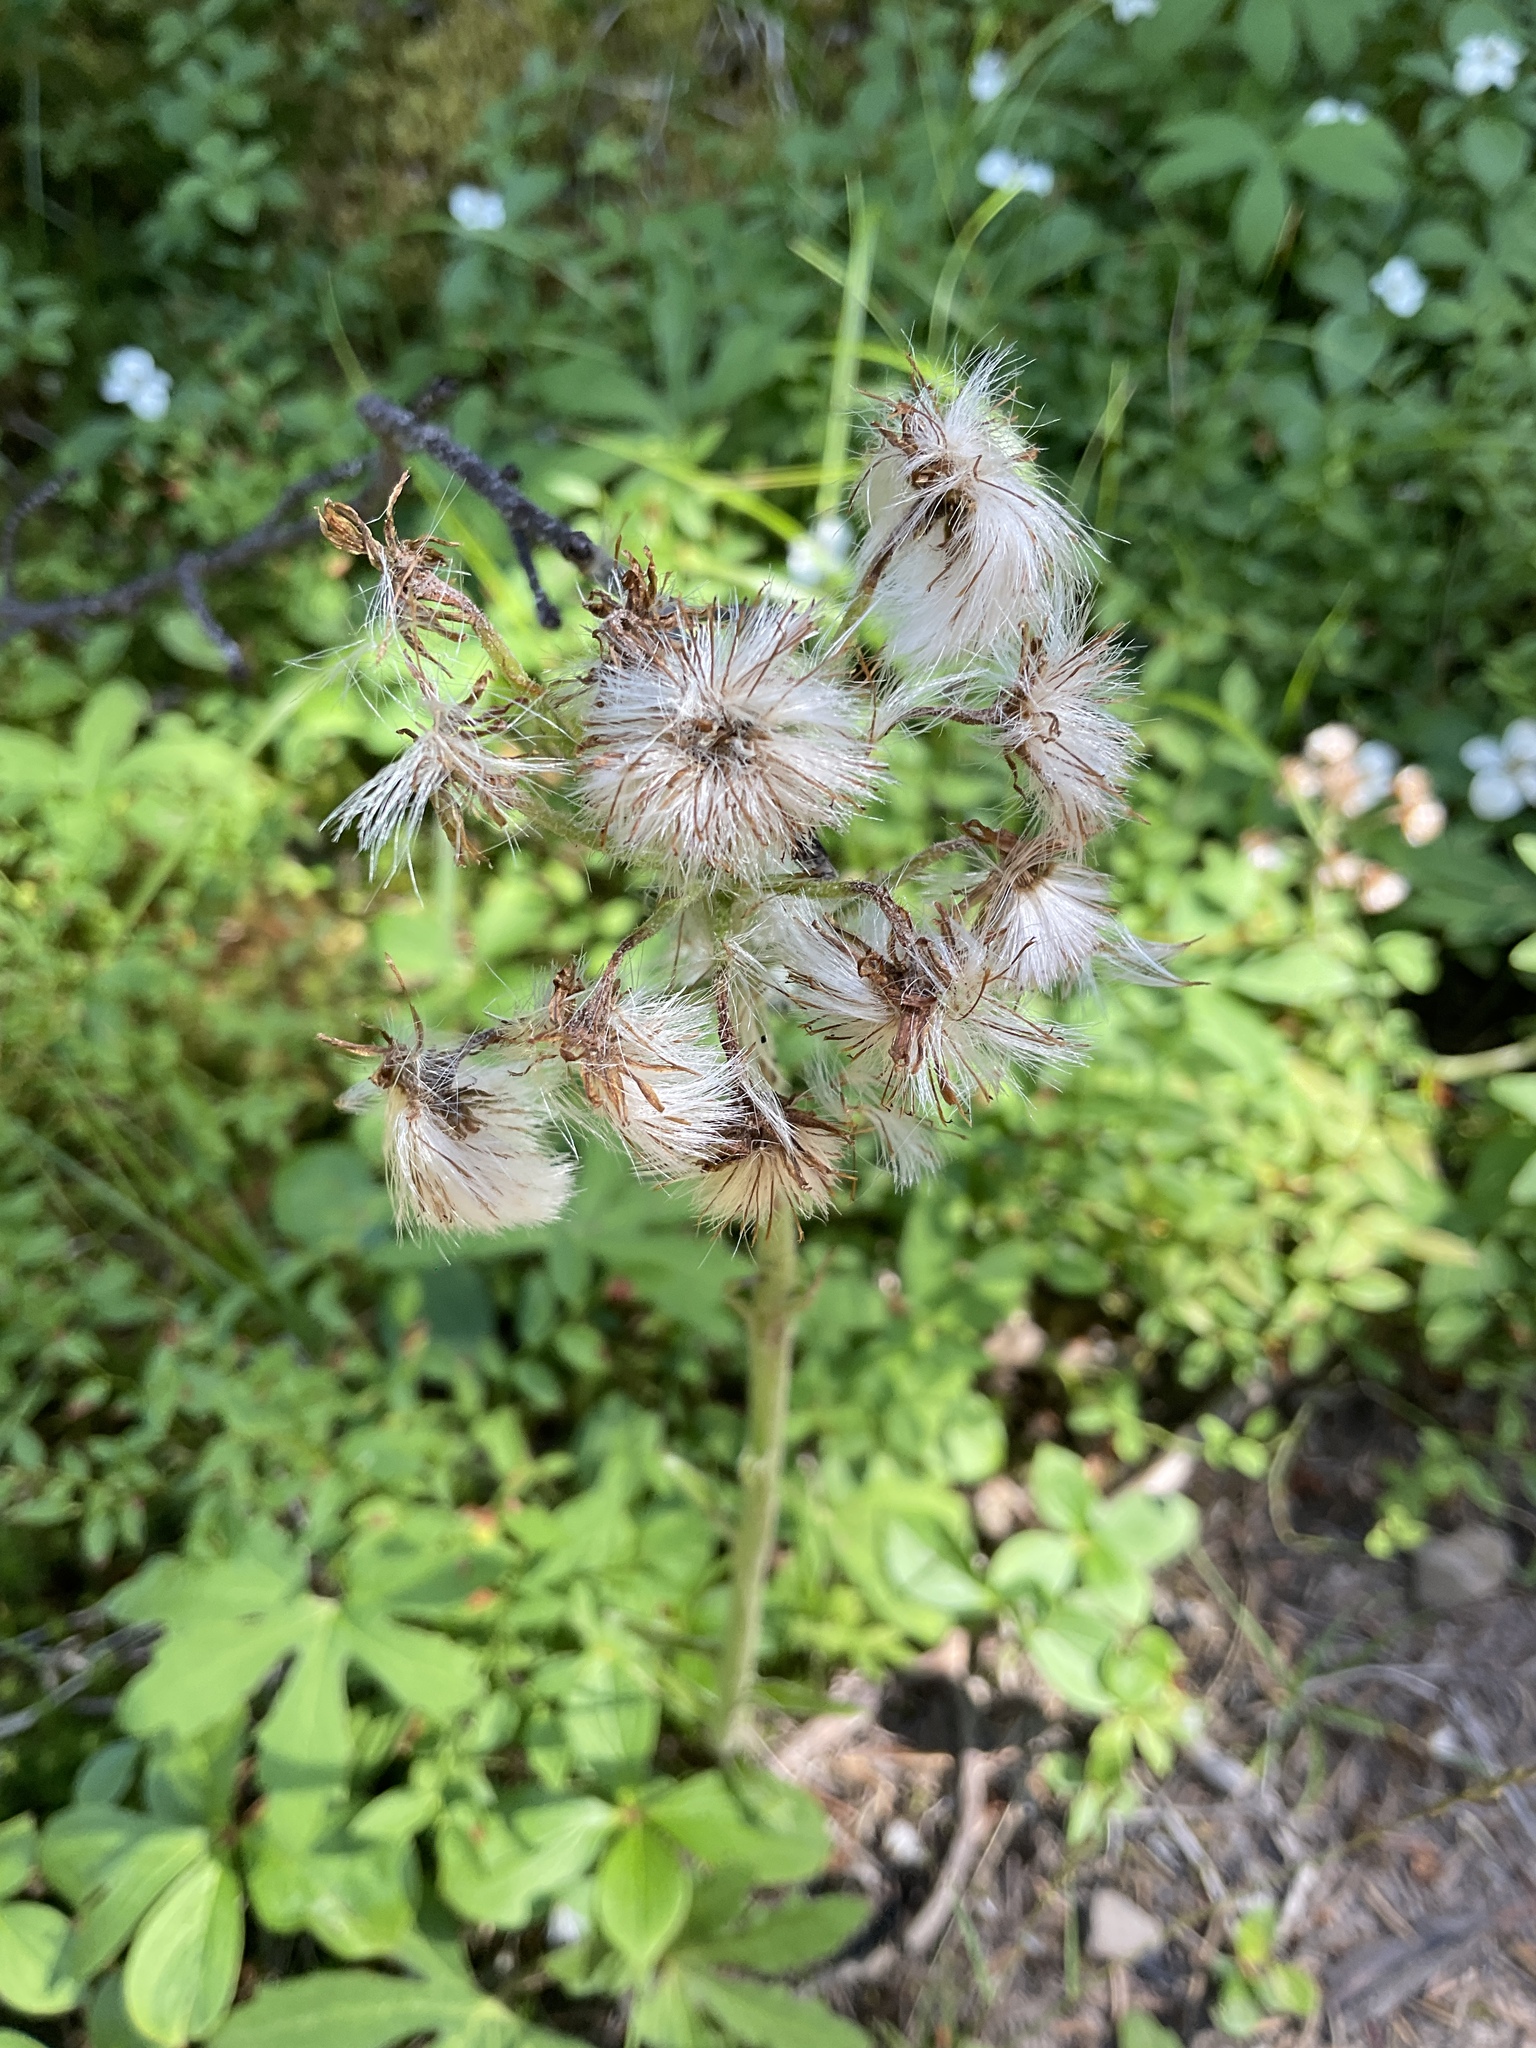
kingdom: Plantae
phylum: Tracheophyta
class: Magnoliopsida
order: Asterales
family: Asteraceae
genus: Petasites
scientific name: Petasites frigidus
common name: Arctic butterbur
